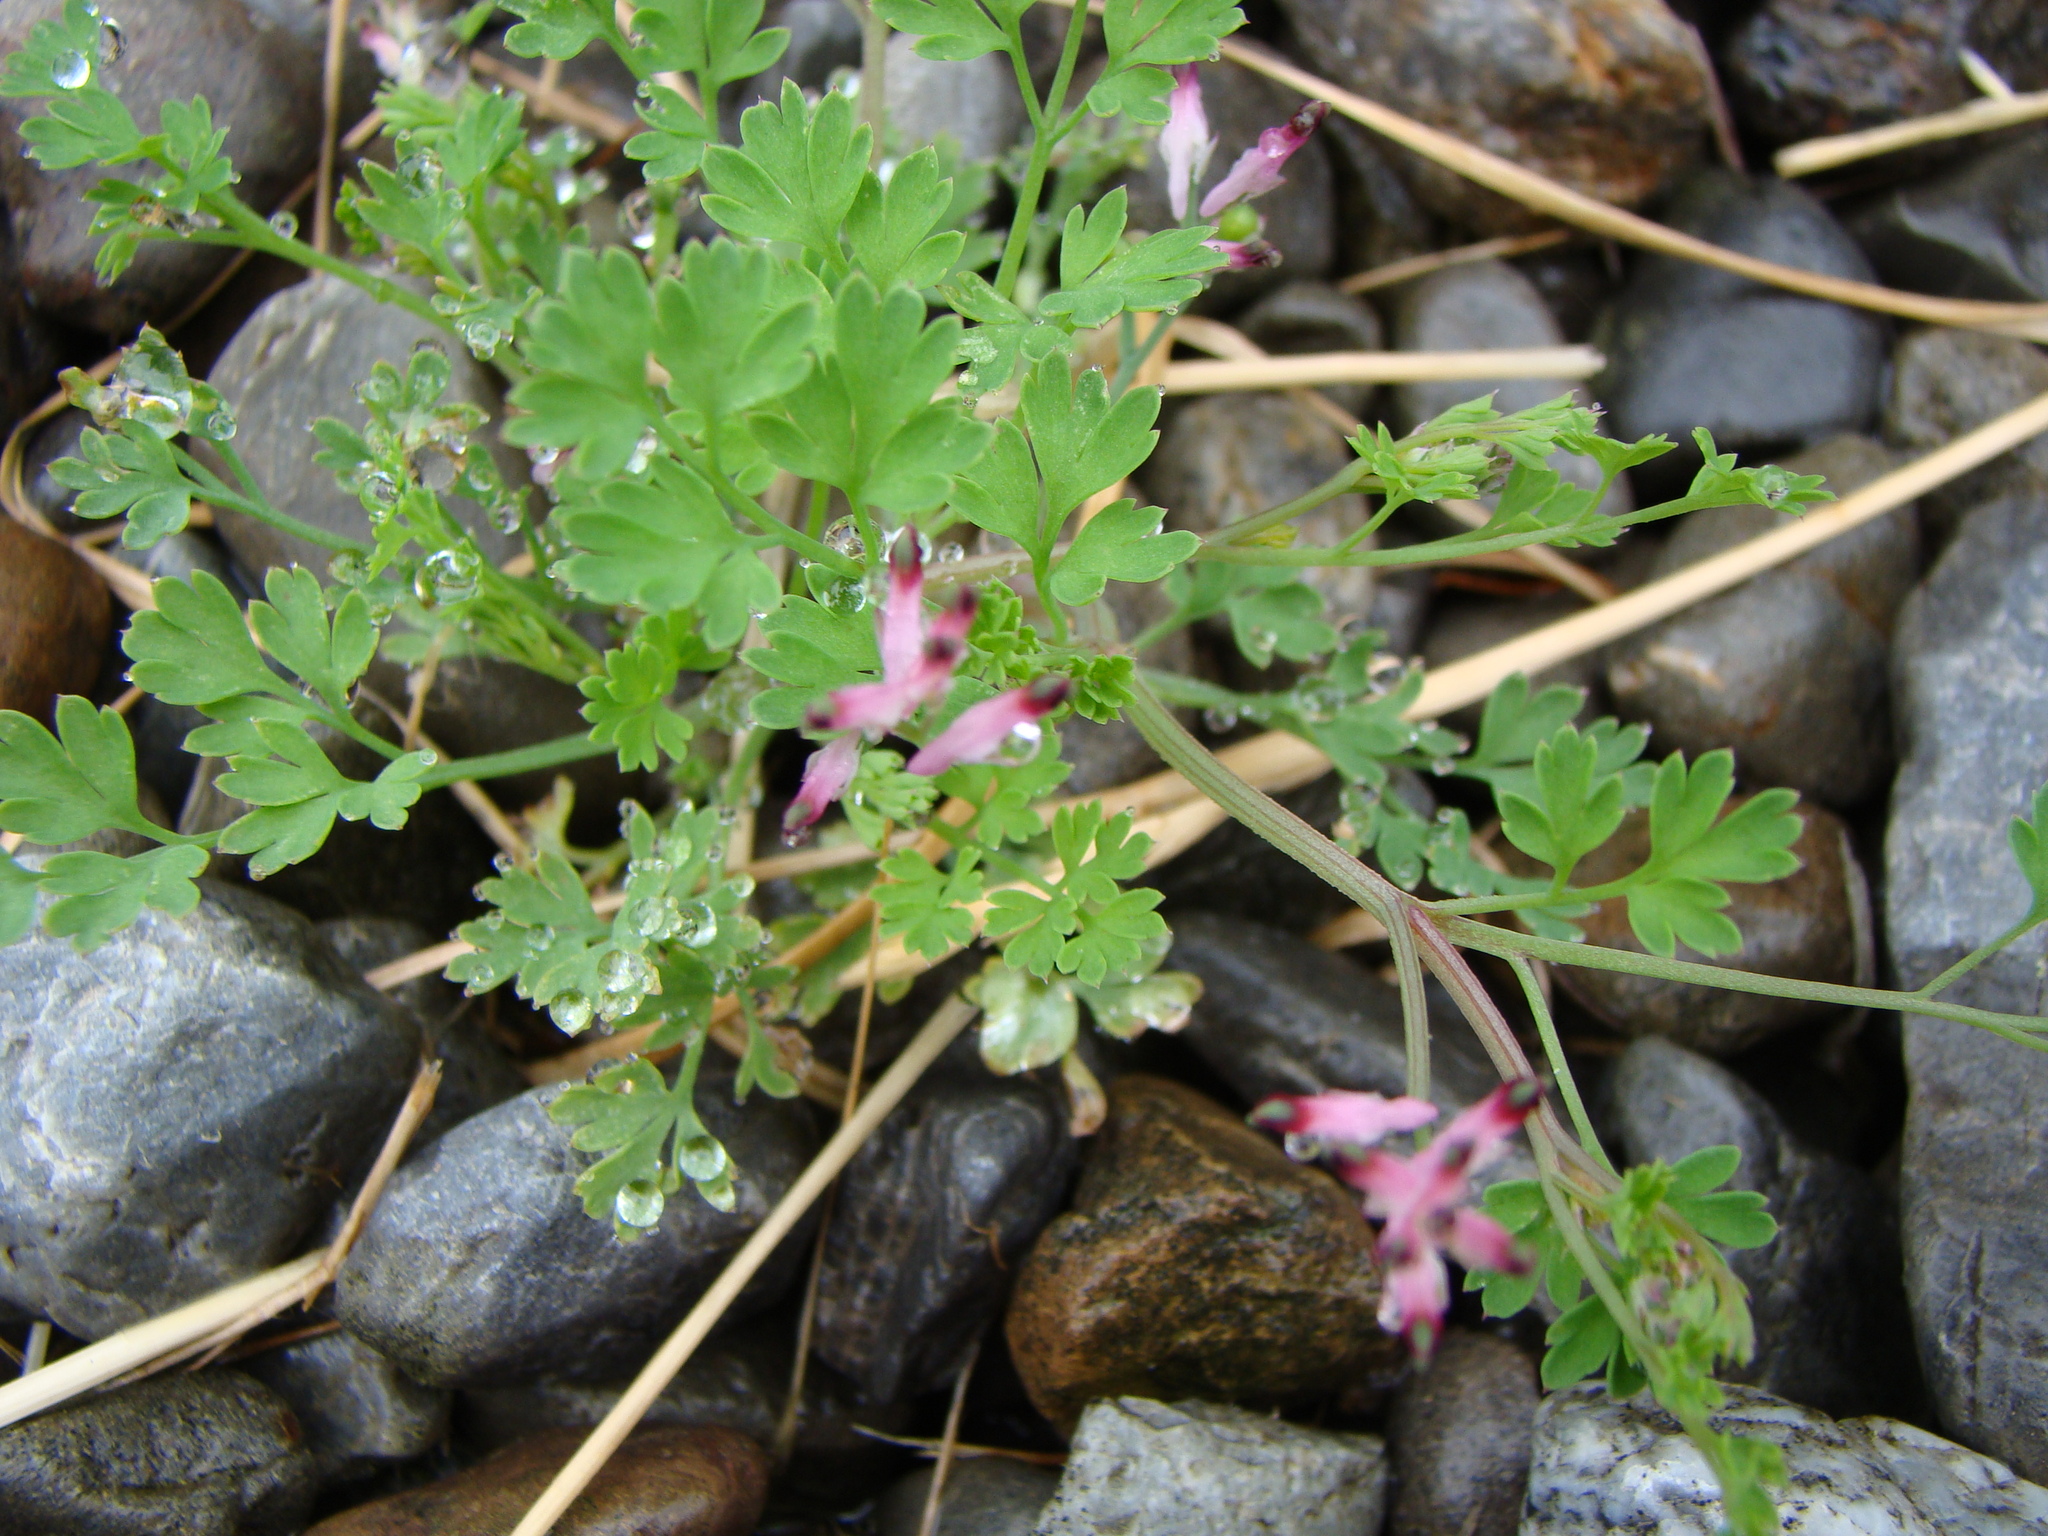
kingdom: Plantae
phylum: Tracheophyta
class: Magnoliopsida
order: Ranunculales
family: Papaveraceae
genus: Fumaria
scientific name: Fumaria muralis
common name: Common ramping-fumitory
